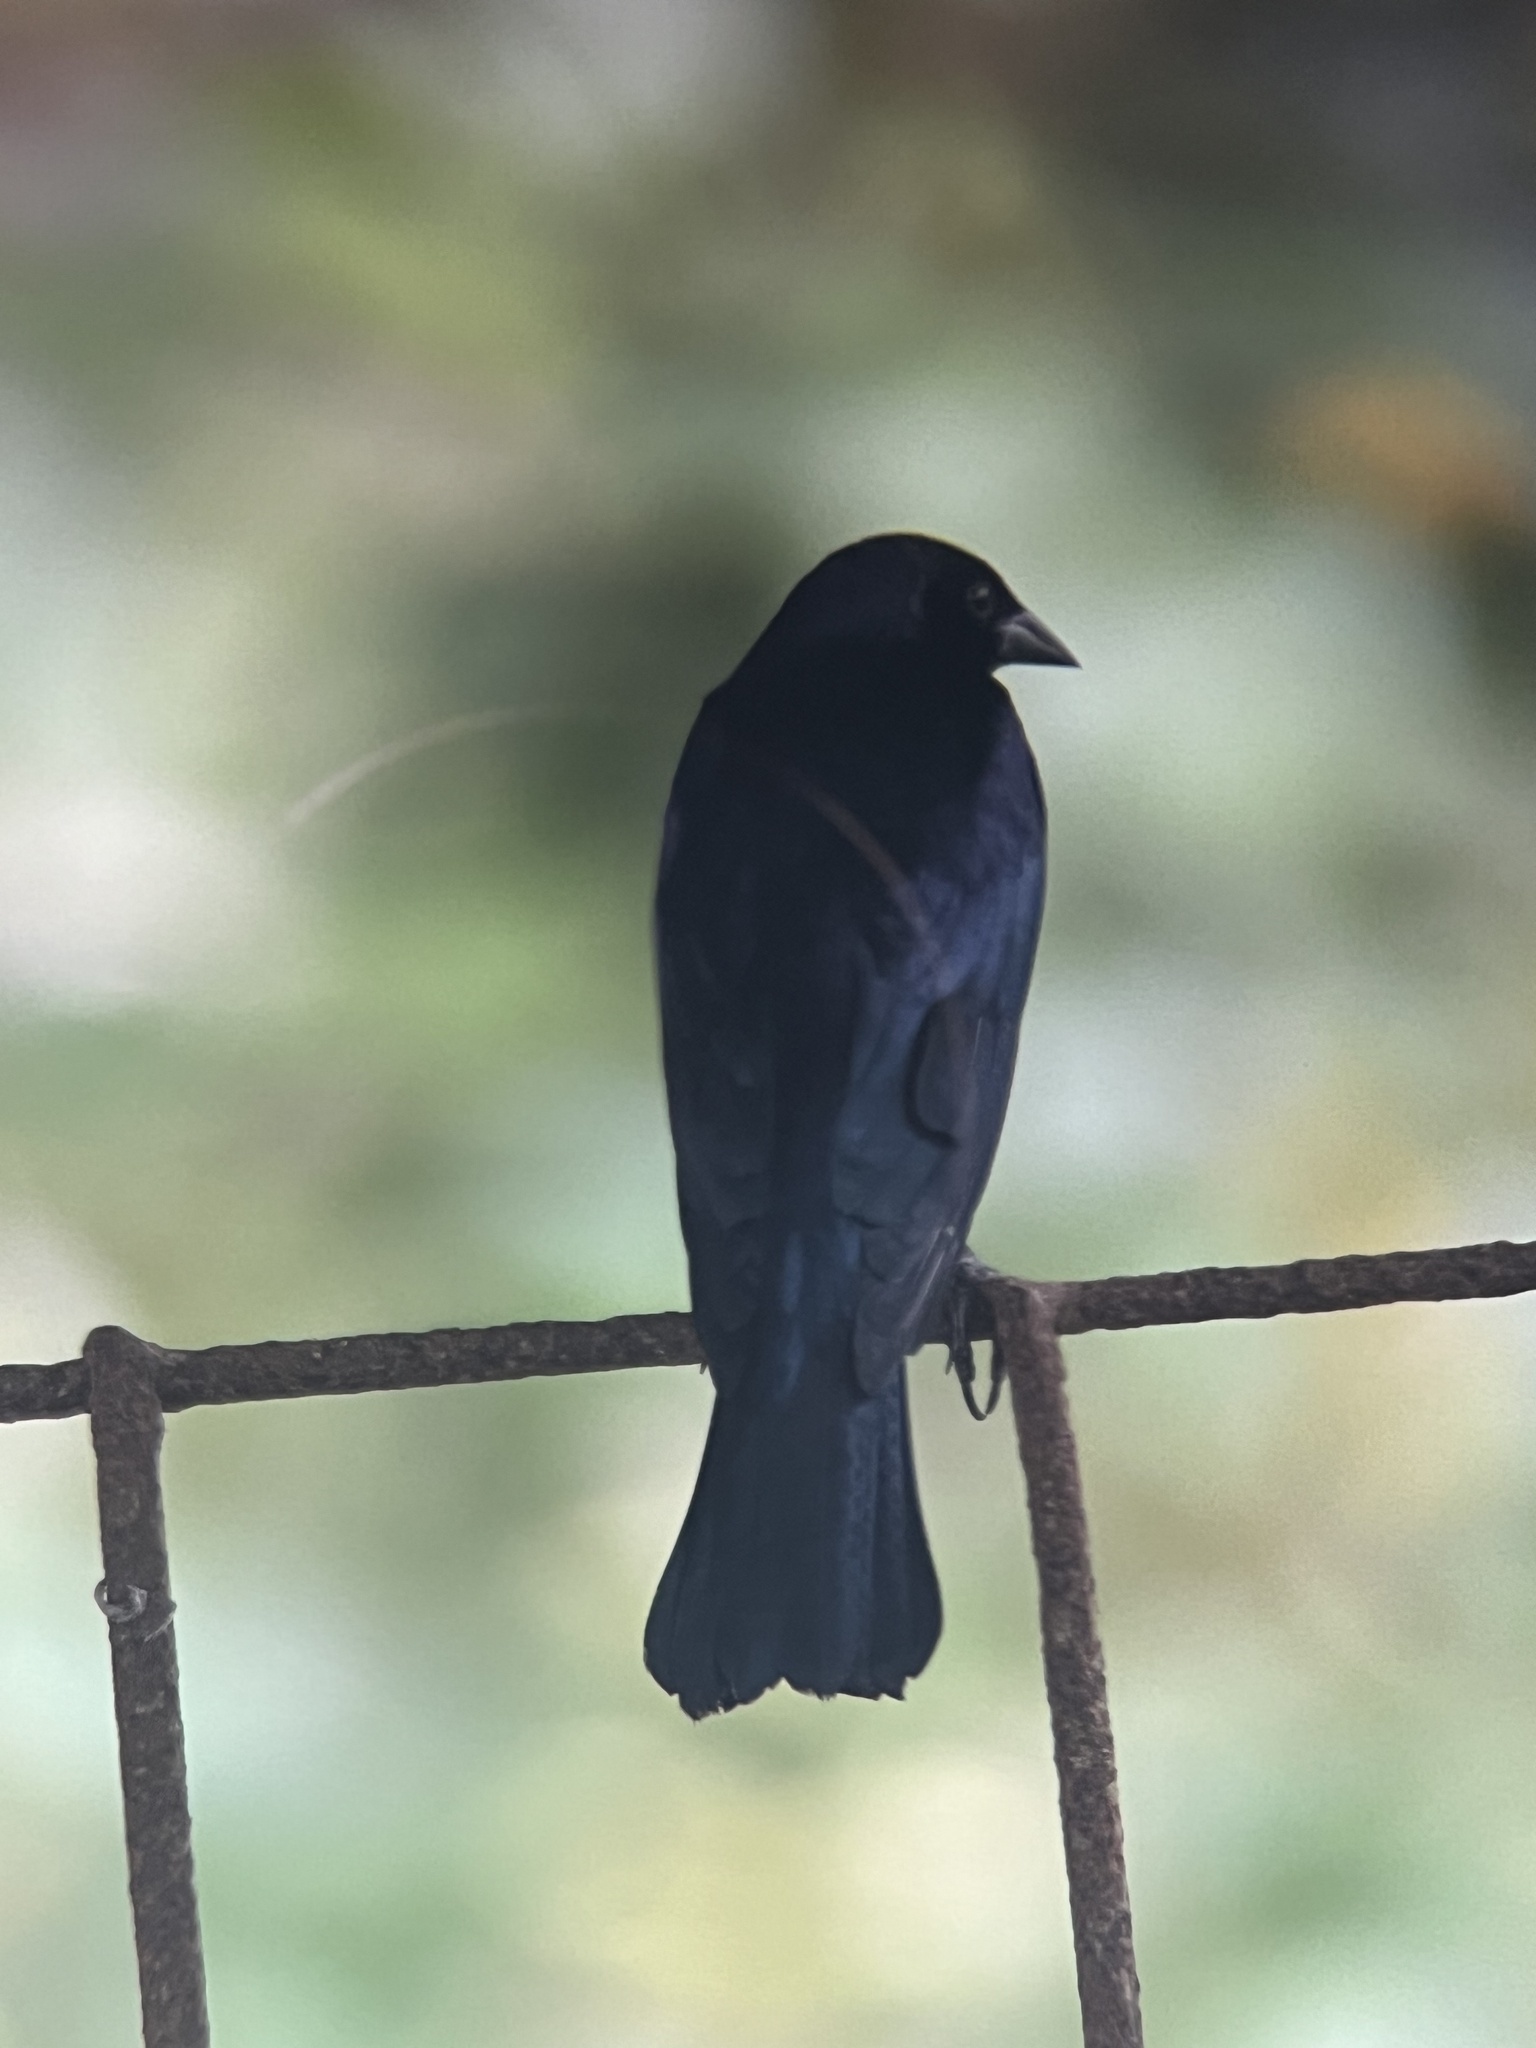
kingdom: Animalia
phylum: Chordata
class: Aves
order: Passeriformes
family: Icteridae
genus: Molothrus
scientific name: Molothrus bonariensis
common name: Shiny cowbird
